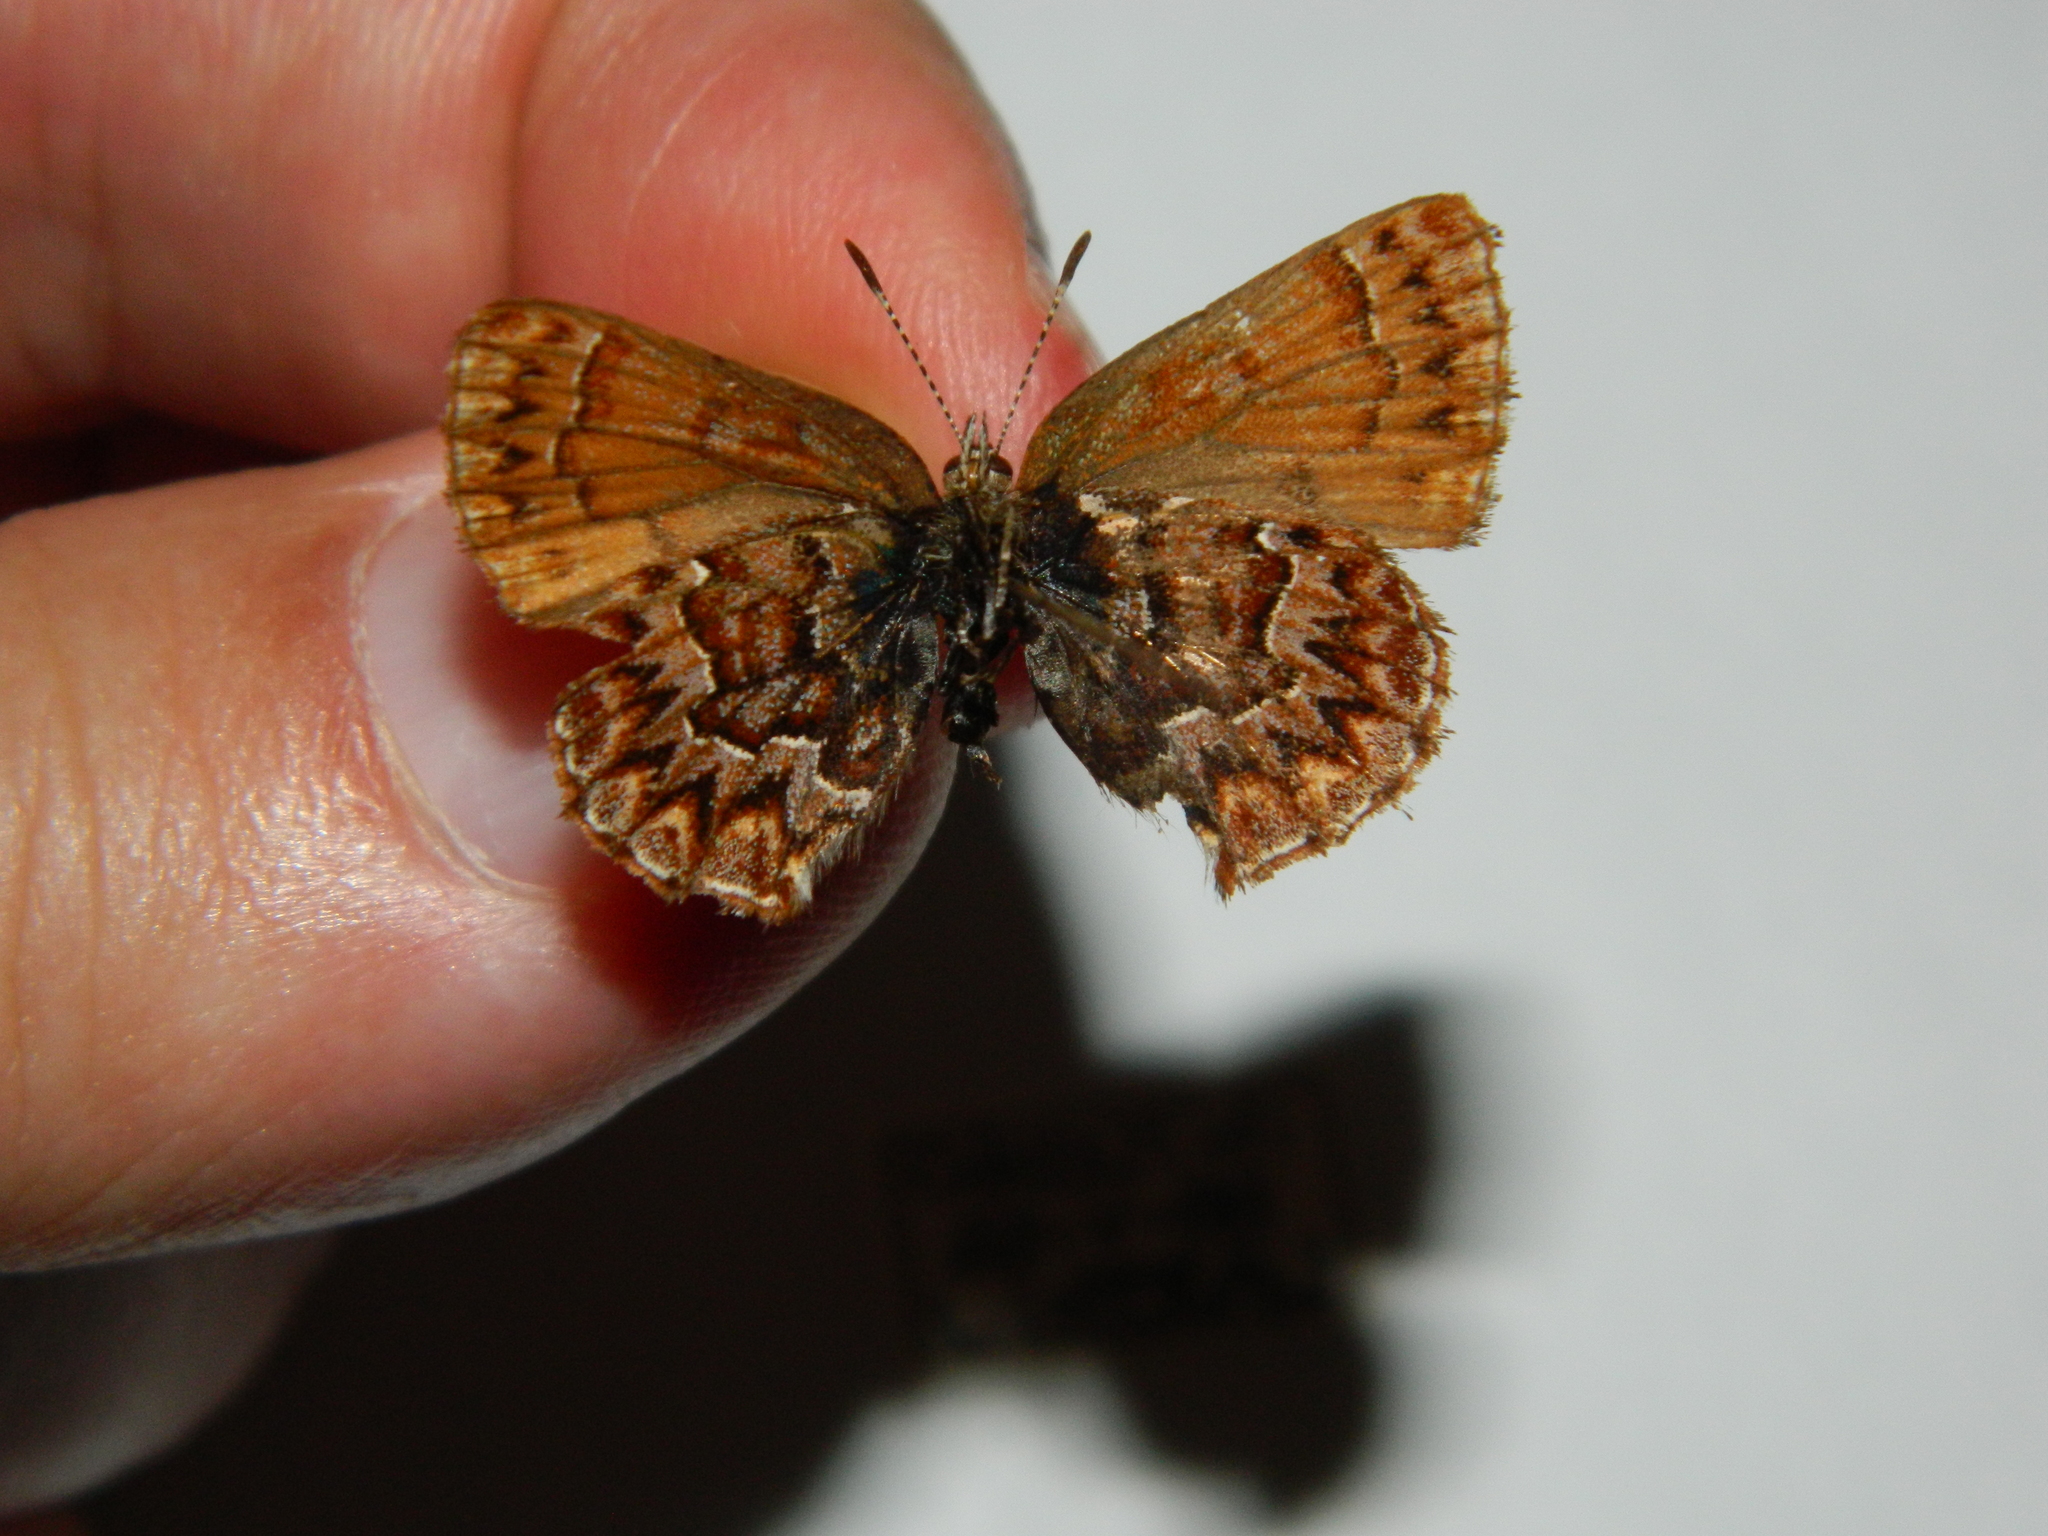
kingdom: Animalia
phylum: Arthropoda
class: Insecta
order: Lepidoptera
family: Lycaenidae
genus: Incisalia
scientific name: Incisalia eryphon
